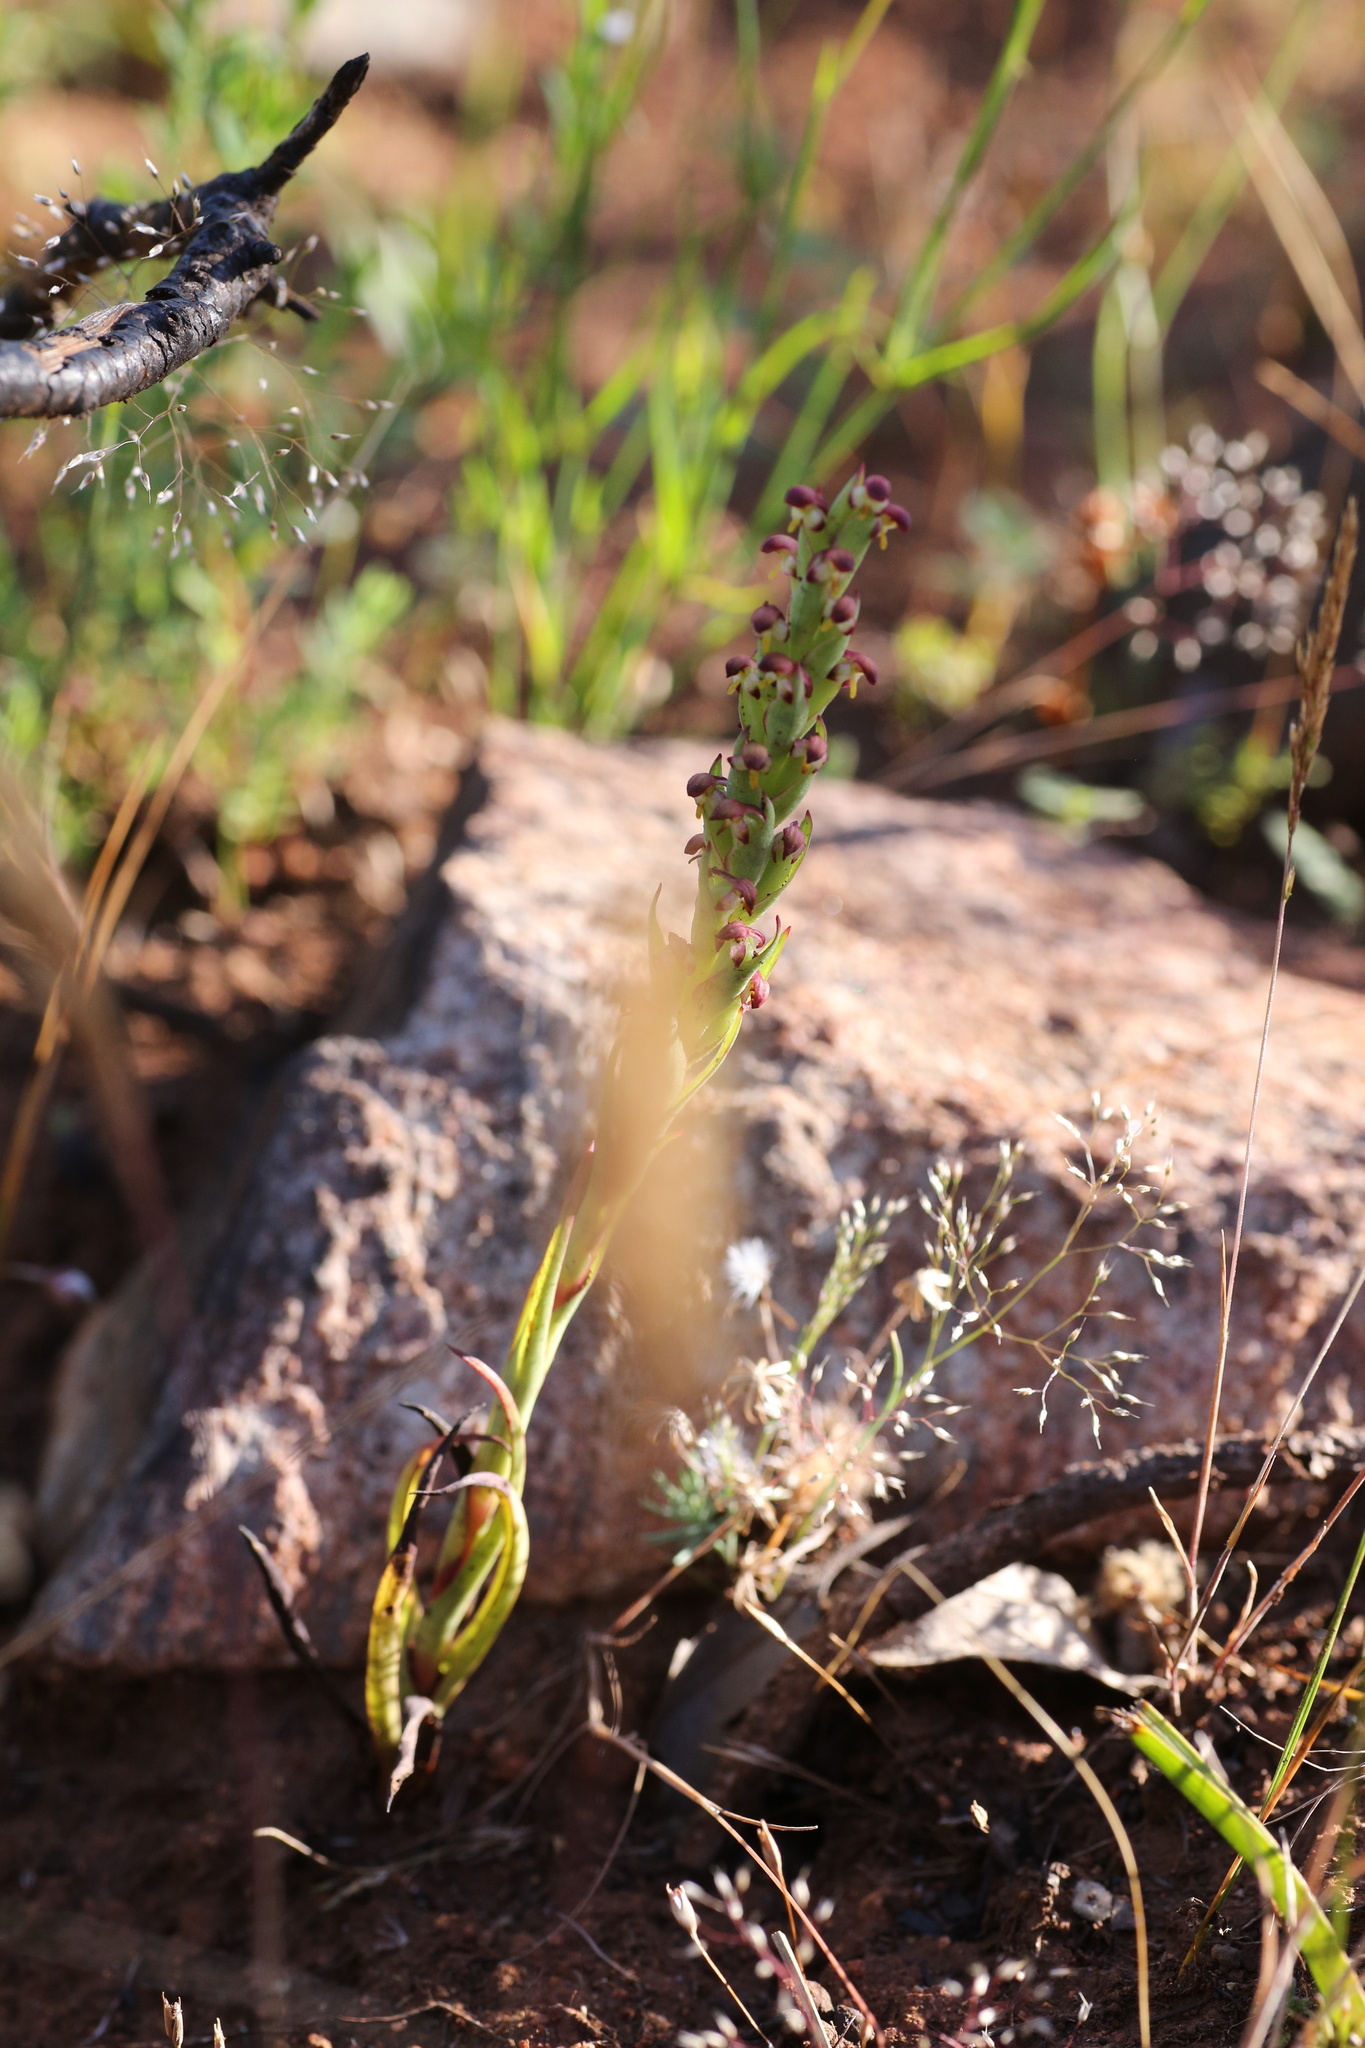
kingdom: Plantae
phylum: Tracheophyta
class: Liliopsida
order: Asparagales
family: Orchidaceae
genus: Disa
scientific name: Disa bracteata
